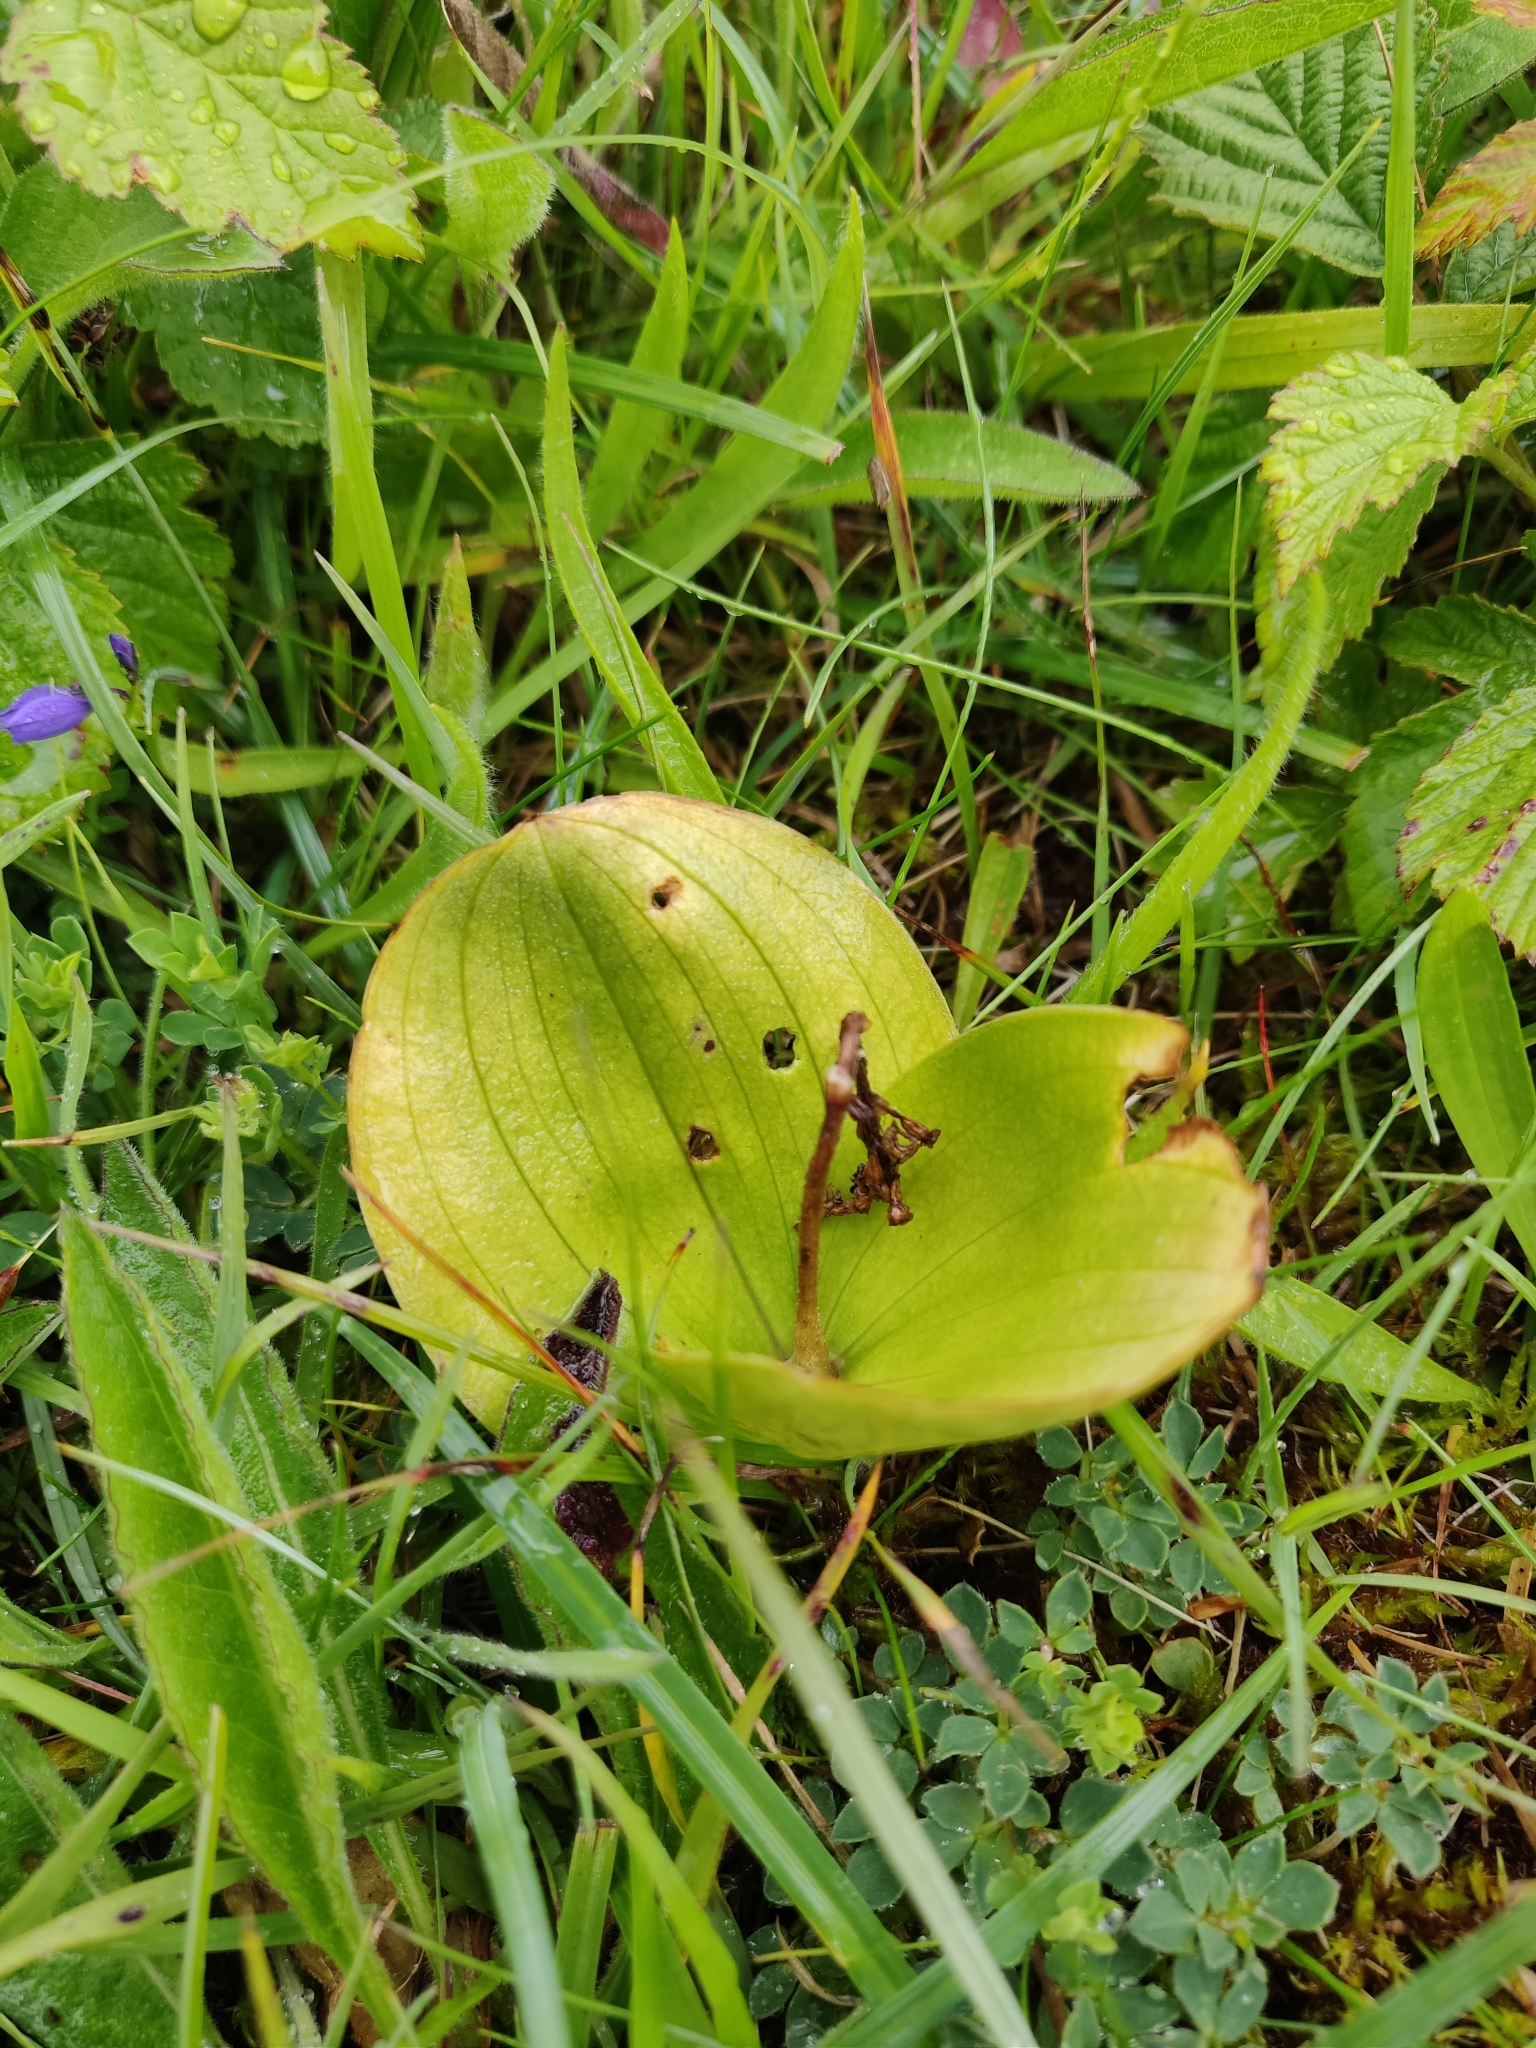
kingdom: Plantae
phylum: Tracheophyta
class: Liliopsida
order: Asparagales
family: Orchidaceae
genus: Neottia
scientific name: Neottia ovata
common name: Common twayblade
